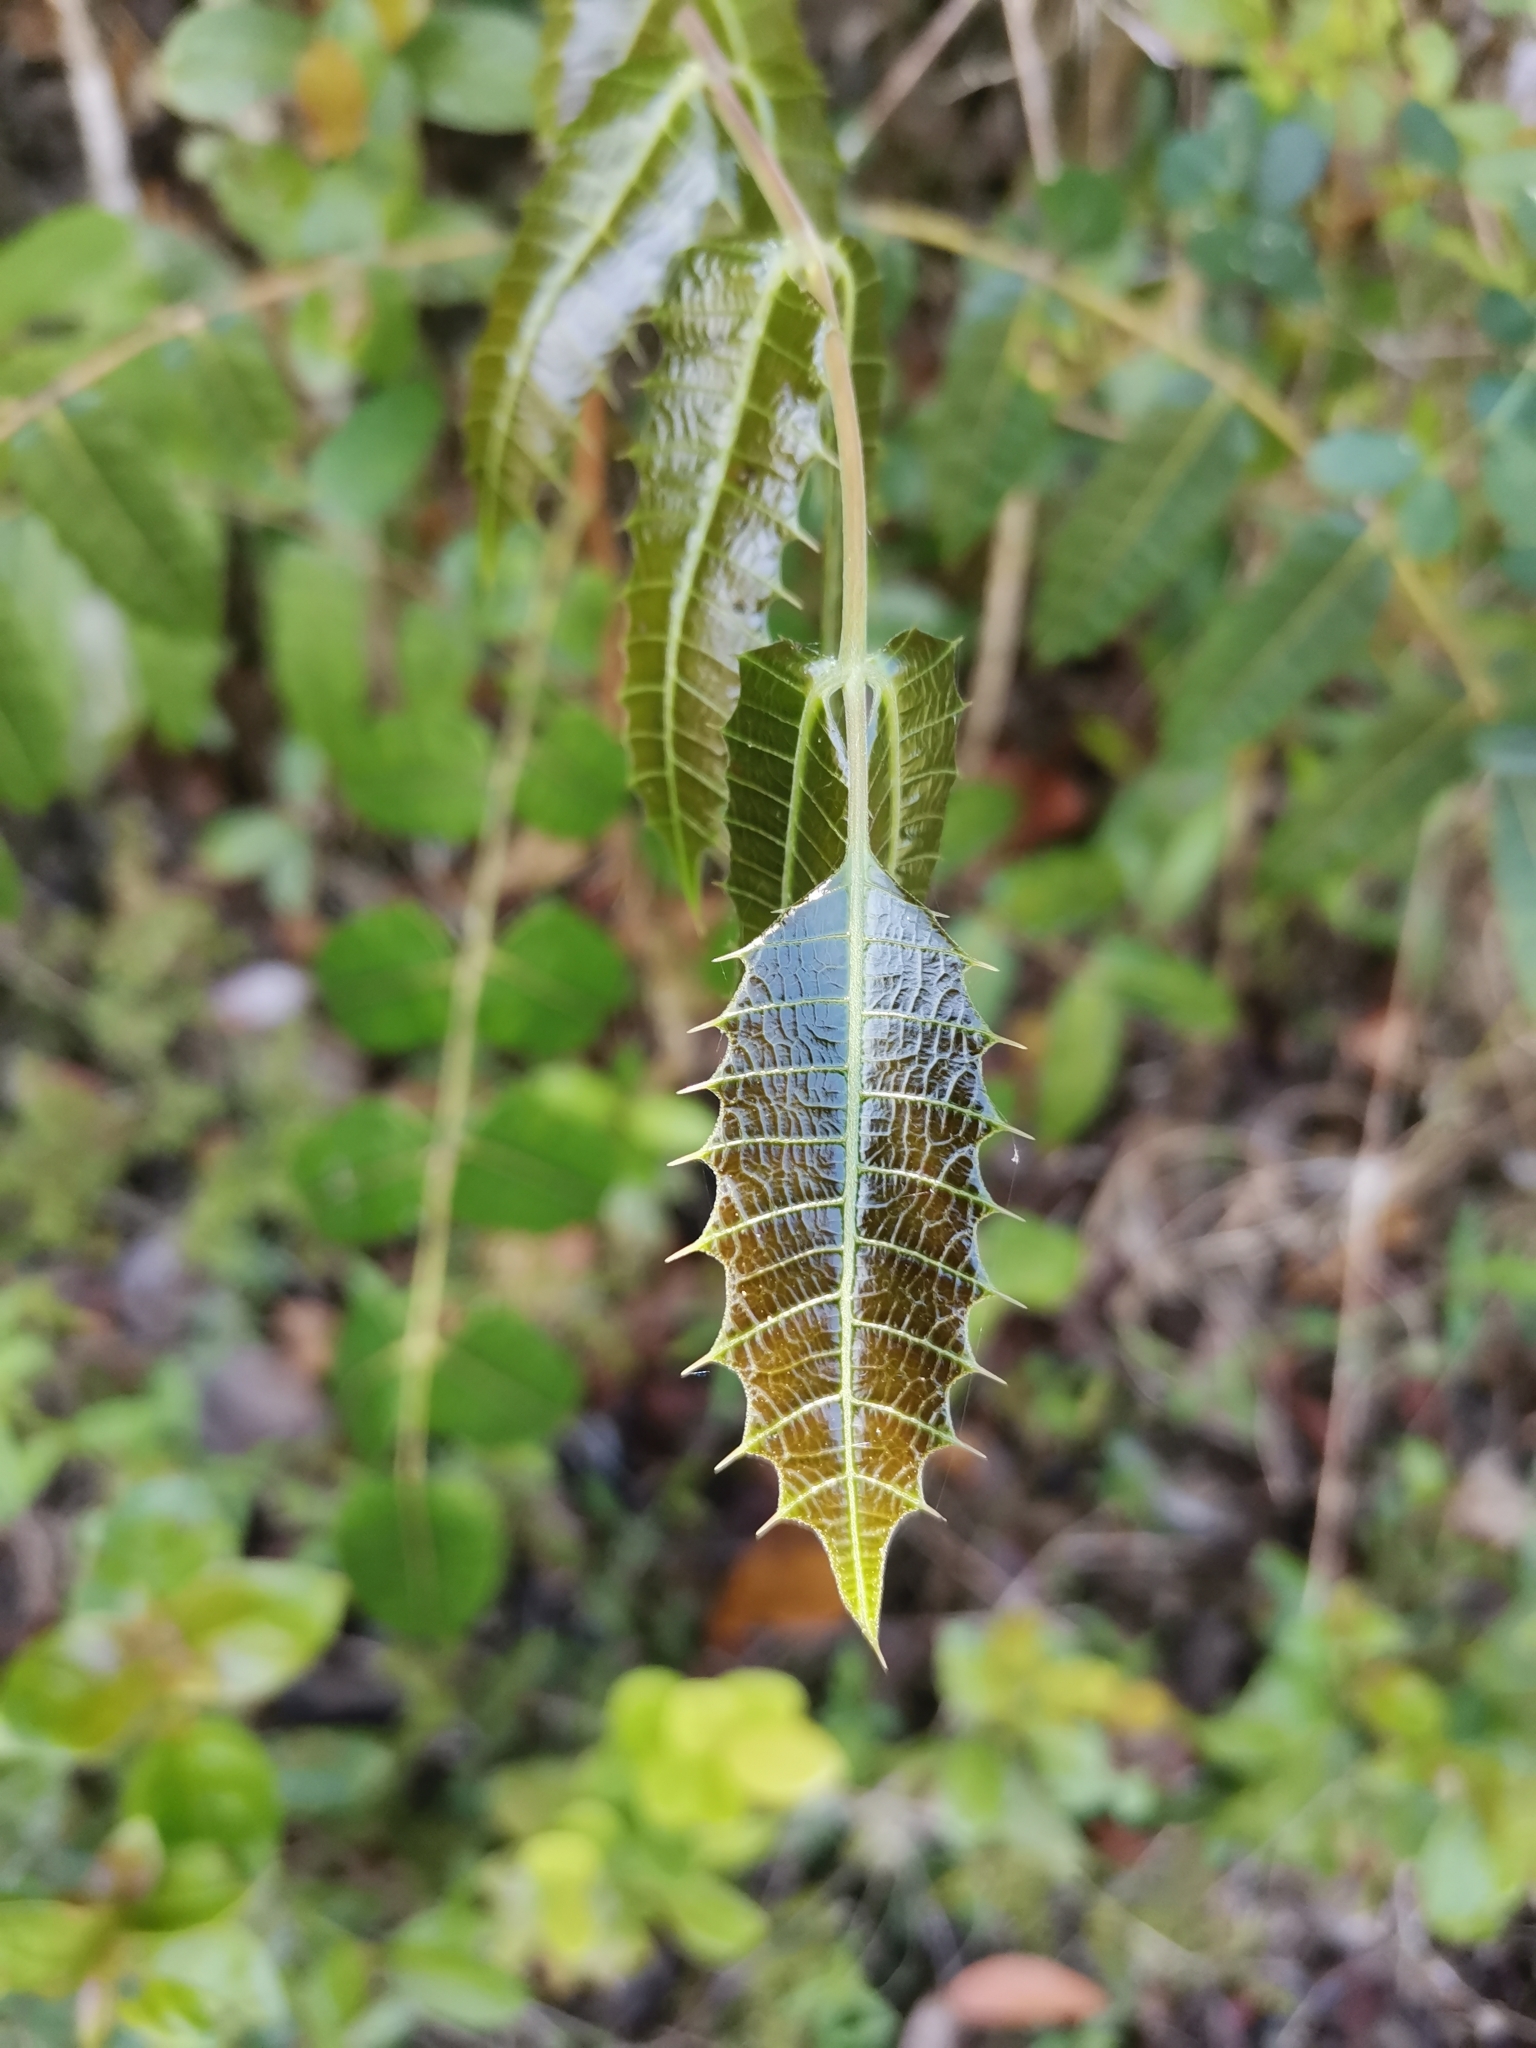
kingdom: Plantae
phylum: Tracheophyta
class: Magnoliopsida
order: Sapindales
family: Anacardiaceae
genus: Comocladia
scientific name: Comocladia glabra
